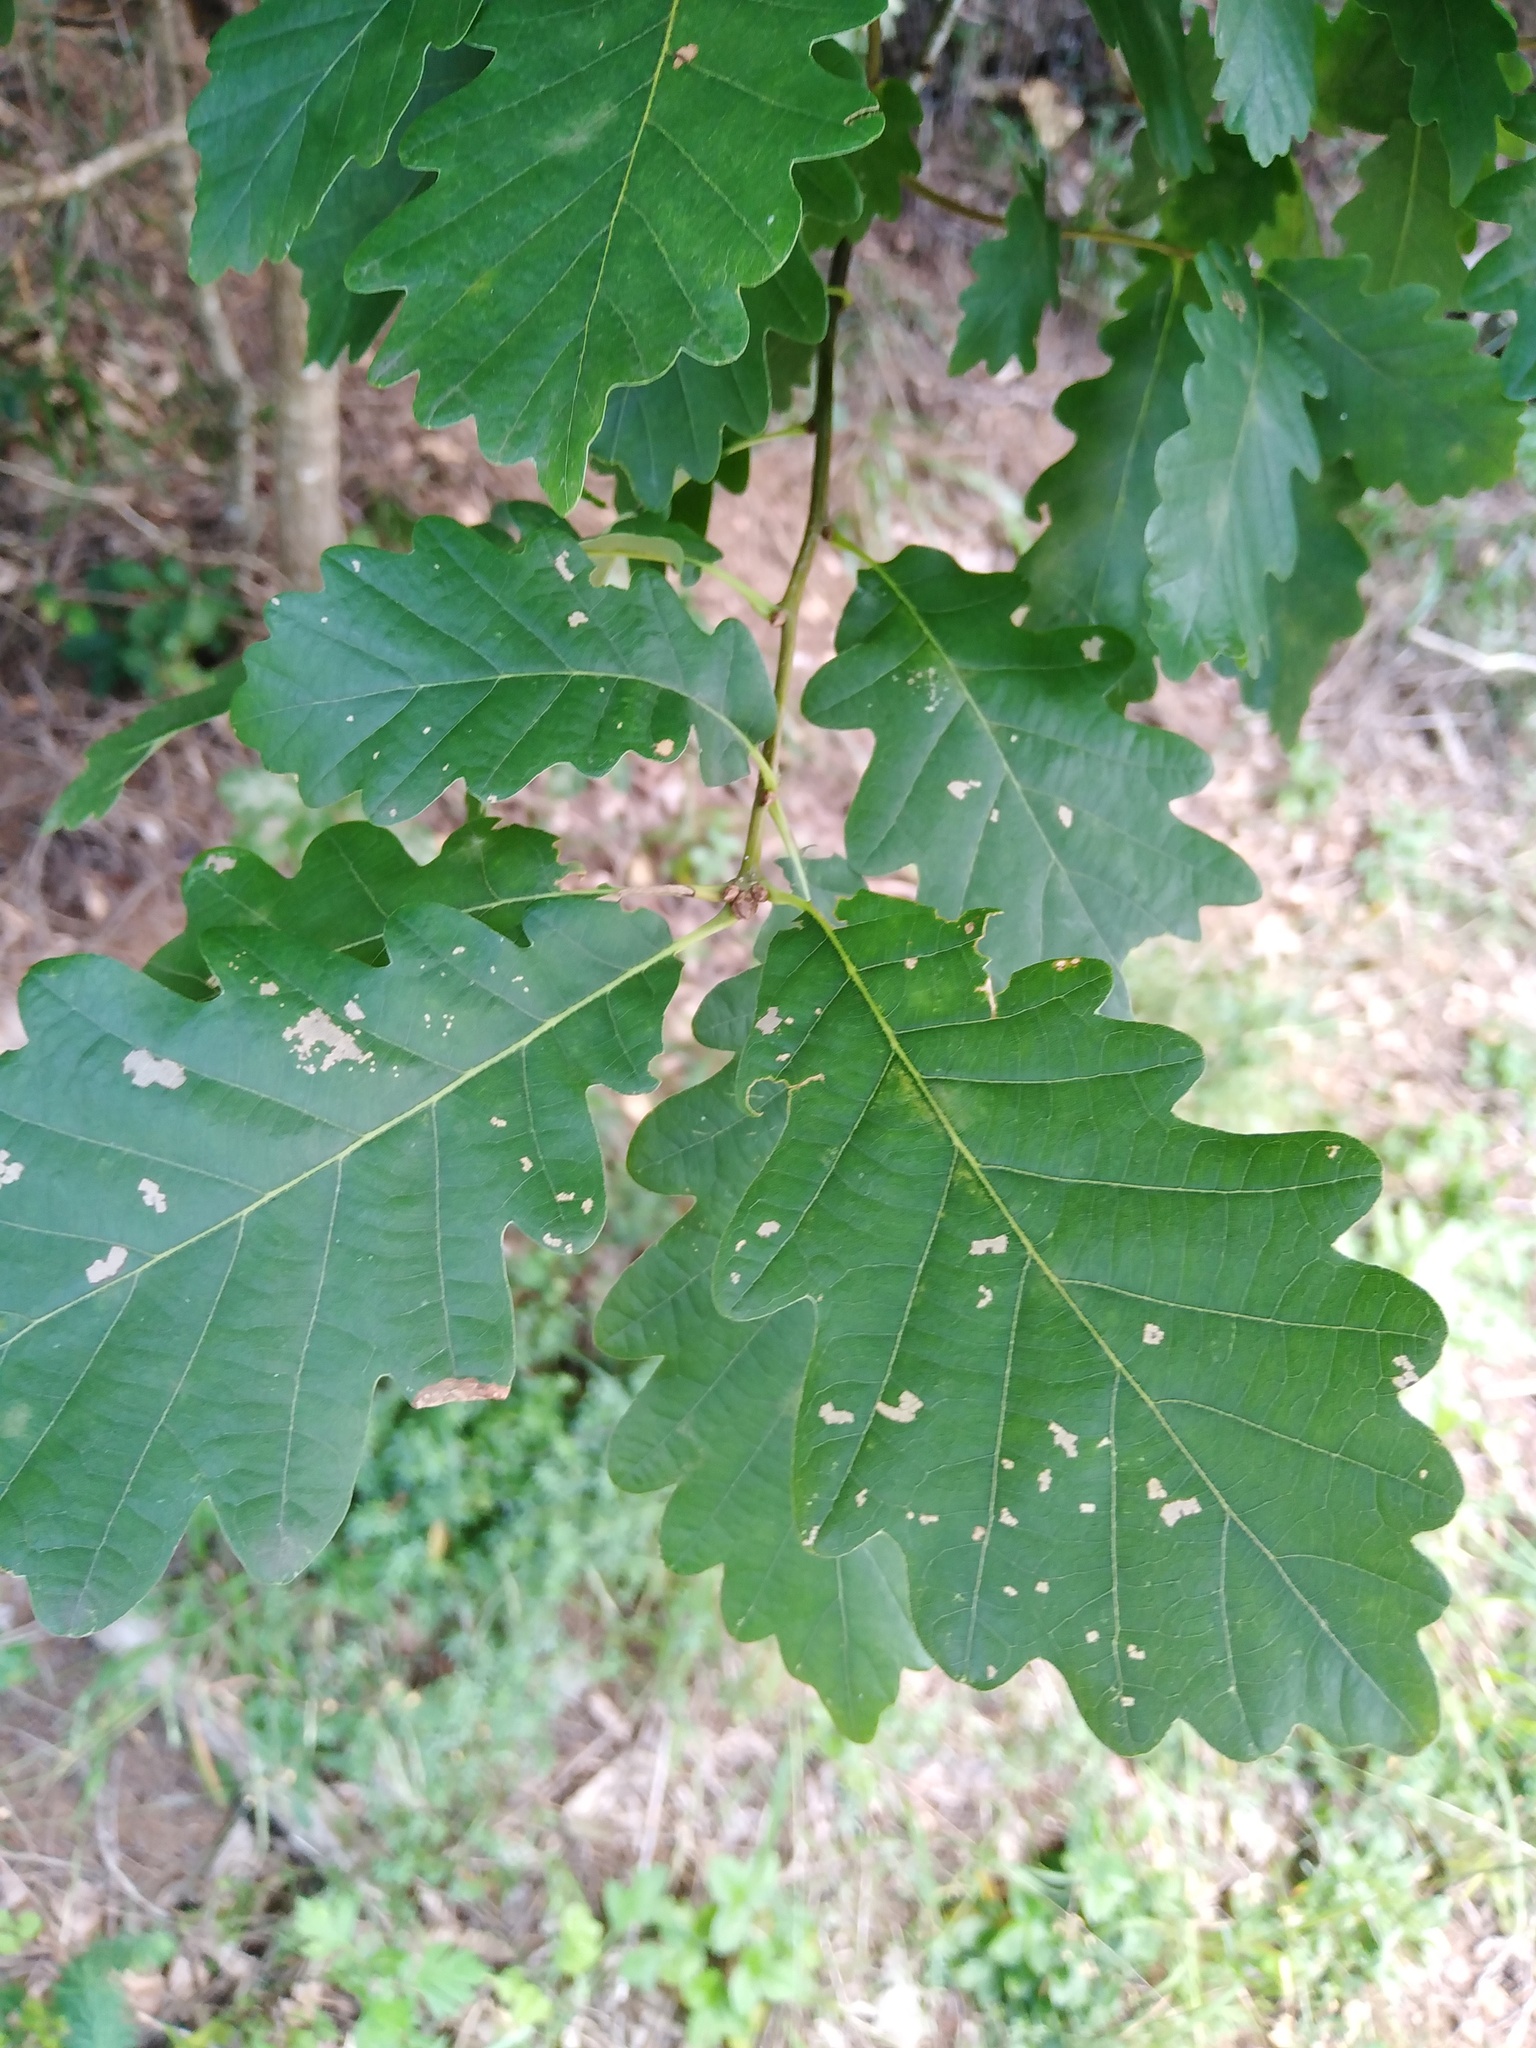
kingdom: Plantae
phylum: Tracheophyta
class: Magnoliopsida
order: Fagales
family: Fagaceae
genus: Quercus
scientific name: Quercus petraea
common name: Sessile oak
